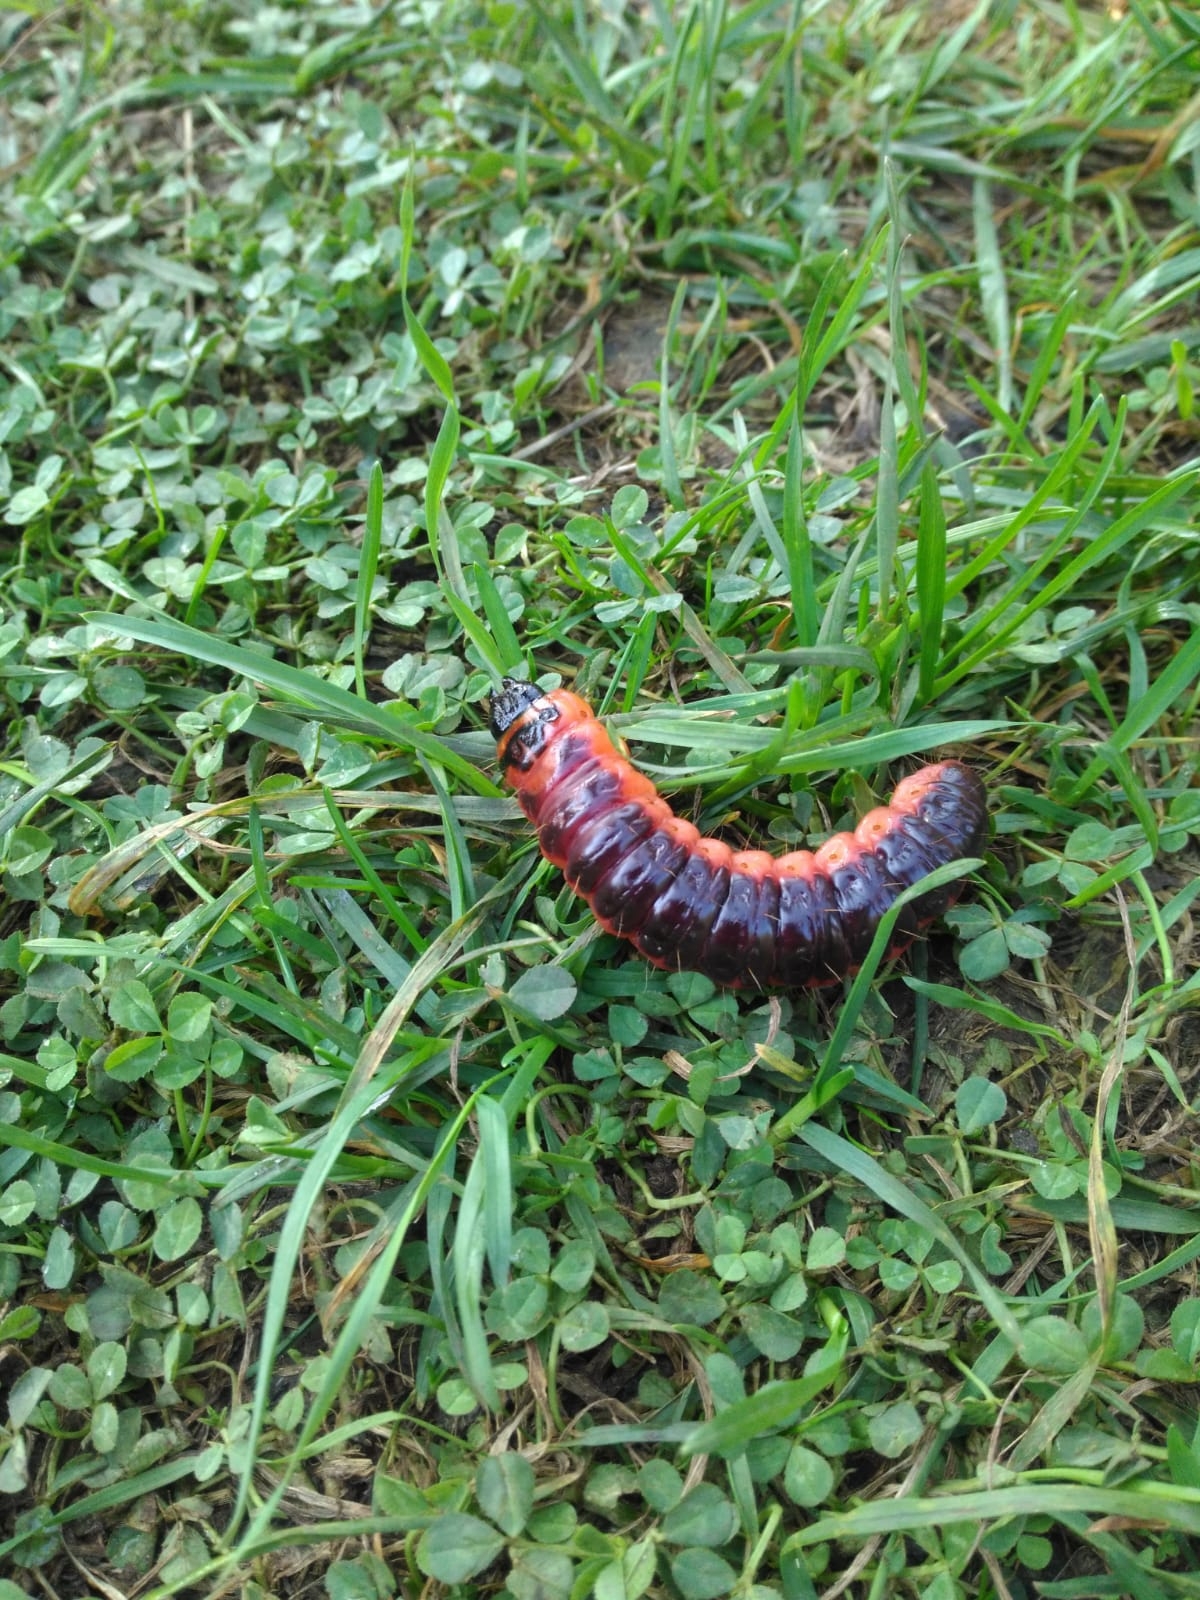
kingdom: Animalia
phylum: Arthropoda
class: Insecta
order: Lepidoptera
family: Cossidae
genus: Cossus
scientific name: Cossus cossus
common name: Goat moth
